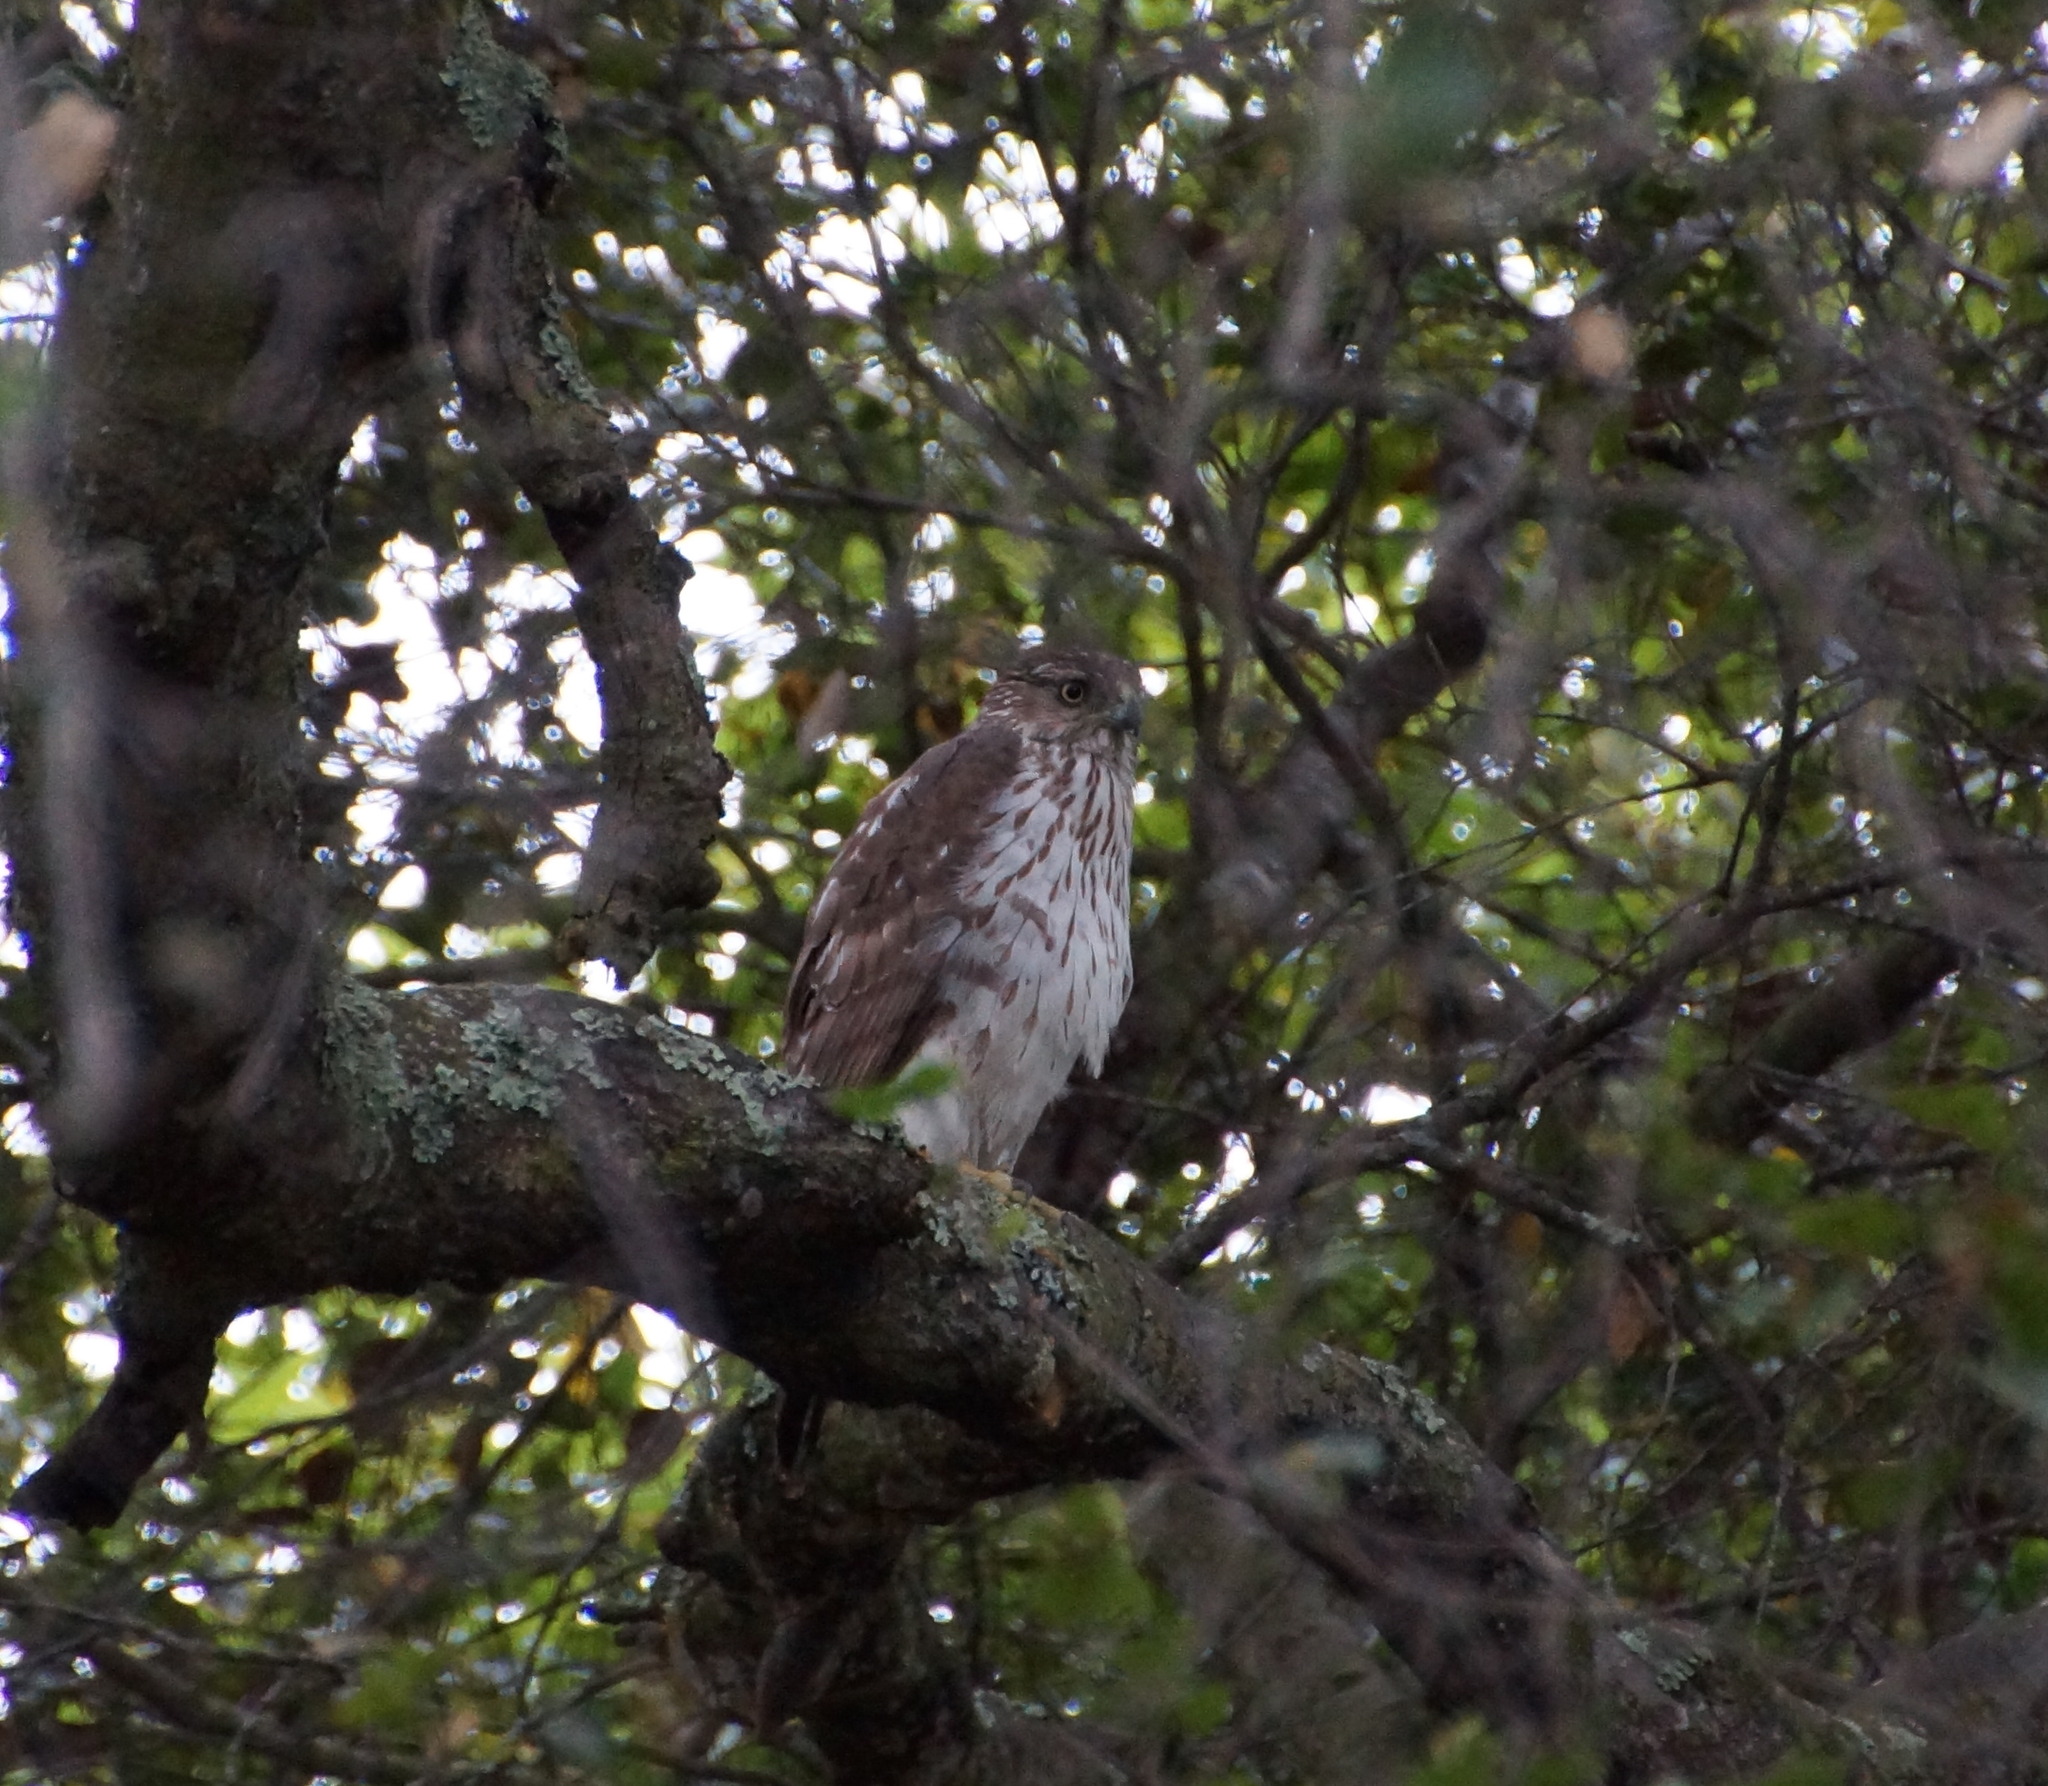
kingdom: Animalia
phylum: Chordata
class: Aves
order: Accipitriformes
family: Accipitridae
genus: Accipiter
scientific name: Accipiter cooperii
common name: Cooper's hawk
